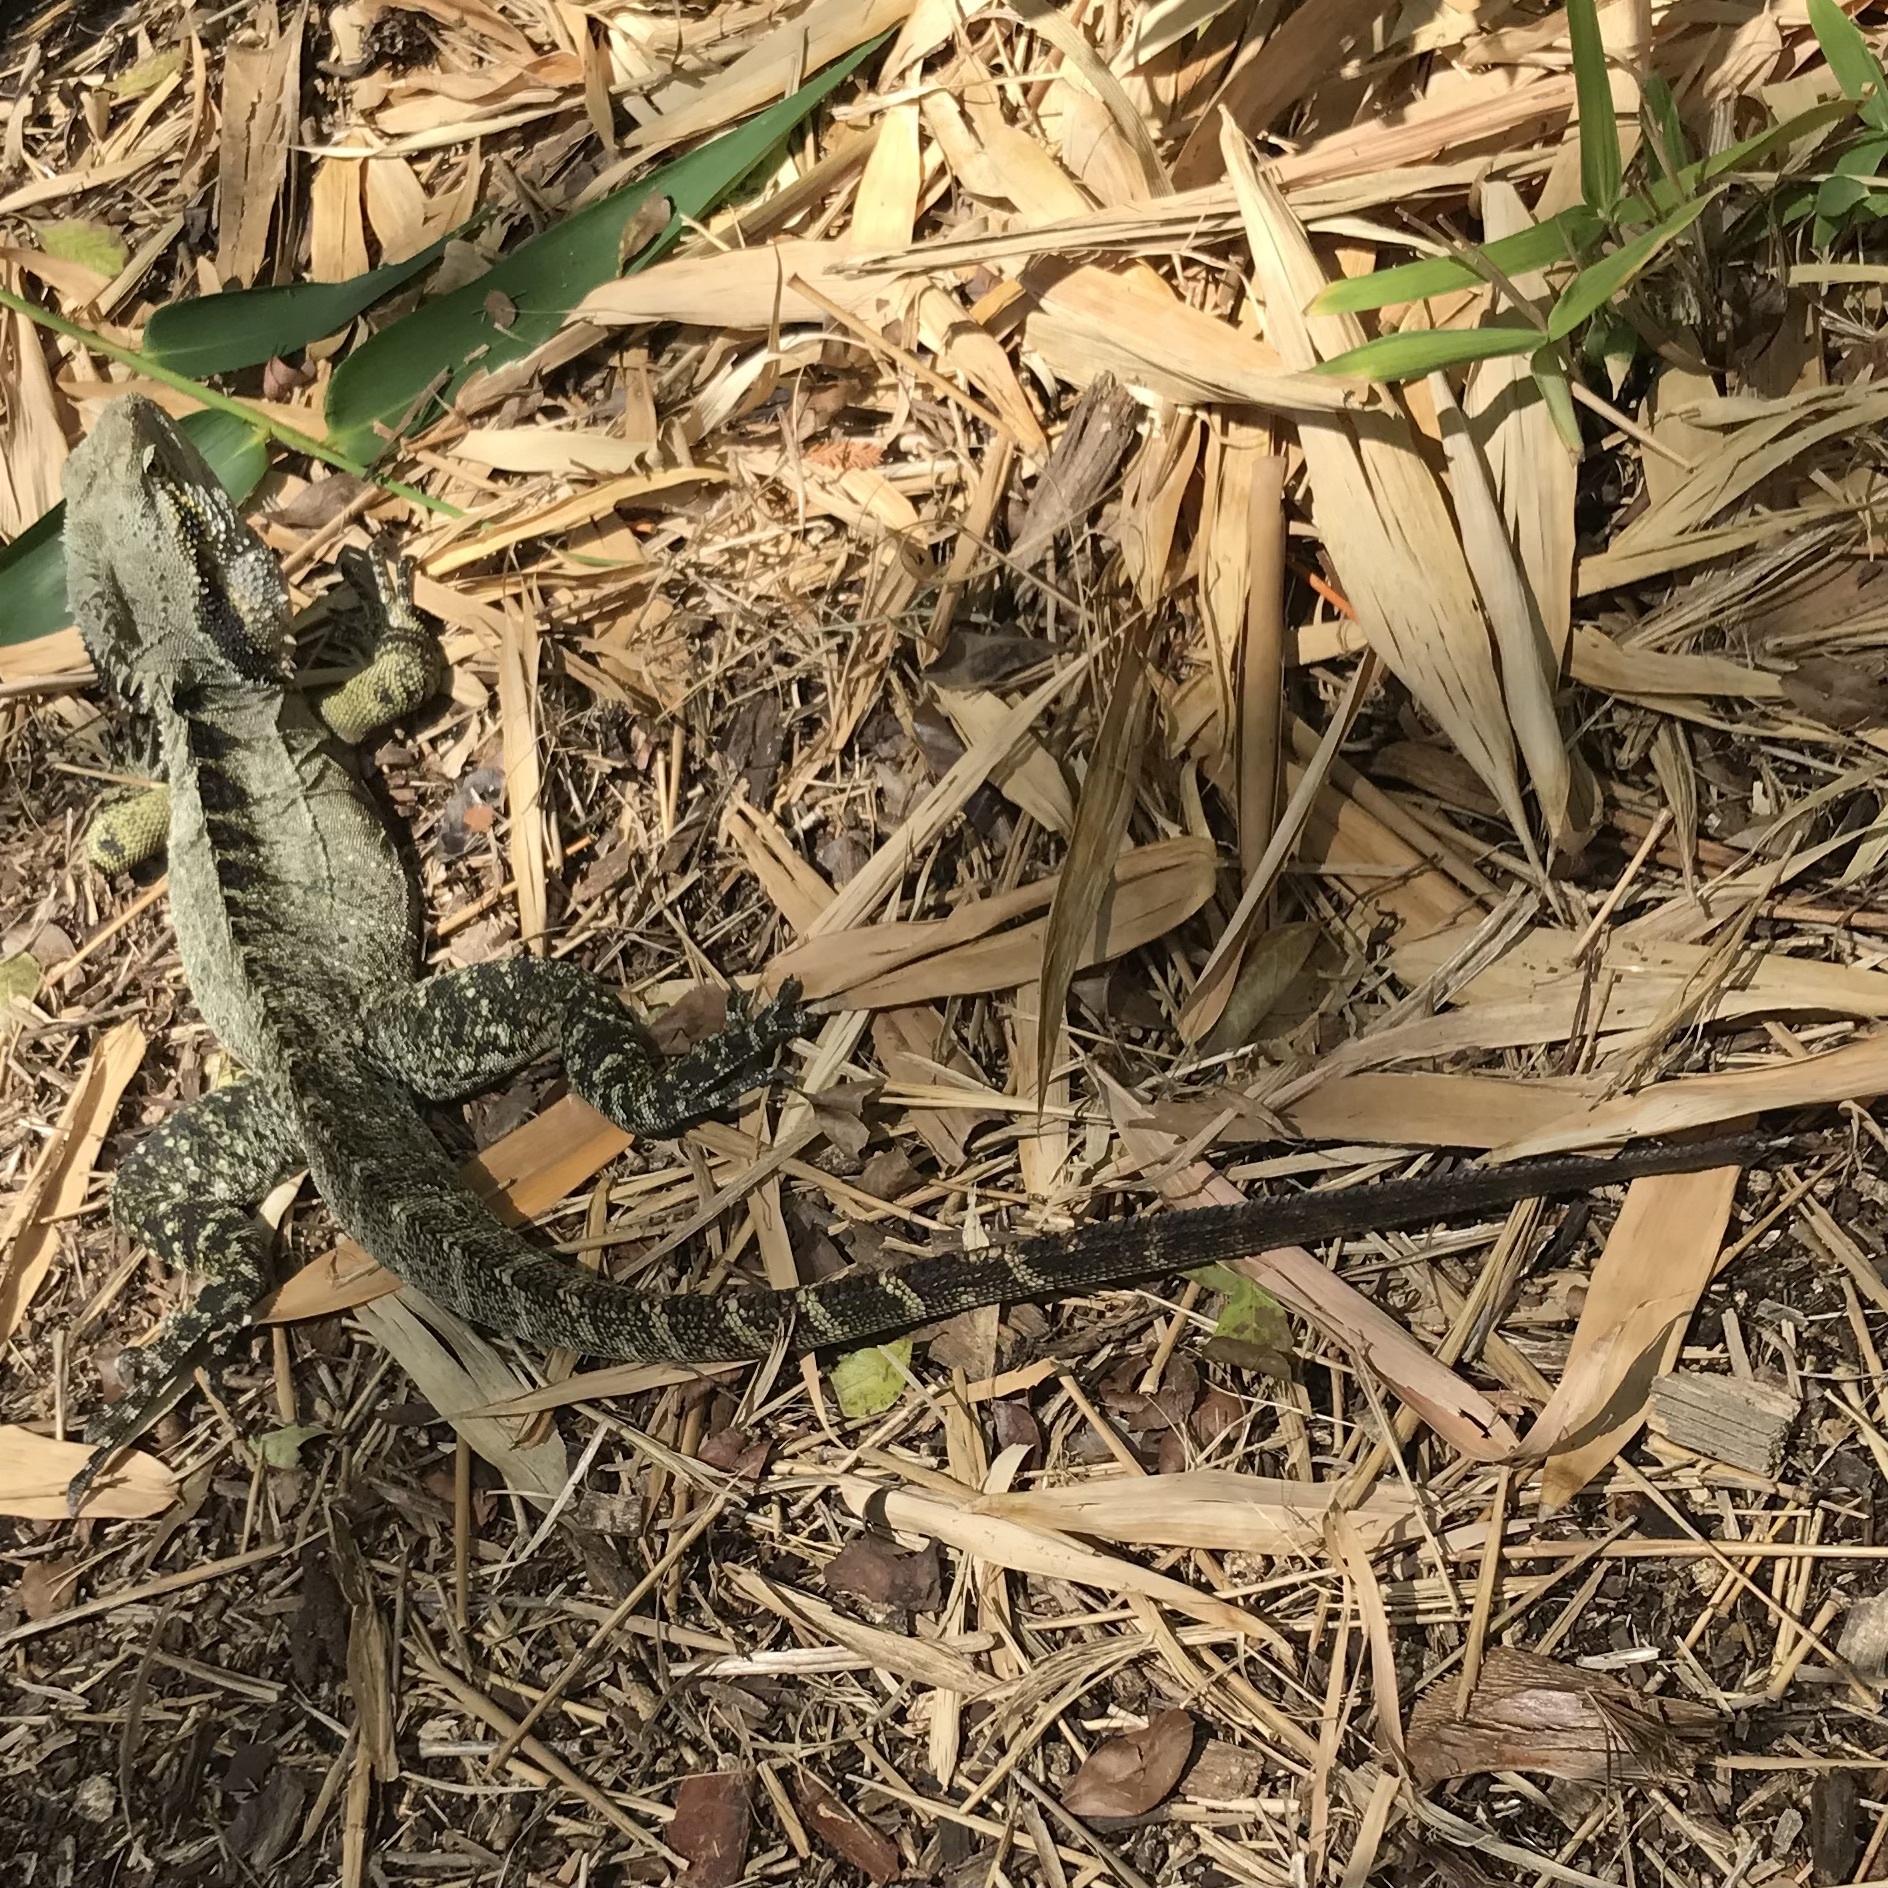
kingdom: Animalia
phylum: Chordata
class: Squamata
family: Agamidae
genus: Intellagama
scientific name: Intellagama lesueurii
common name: Eastern water dragon
